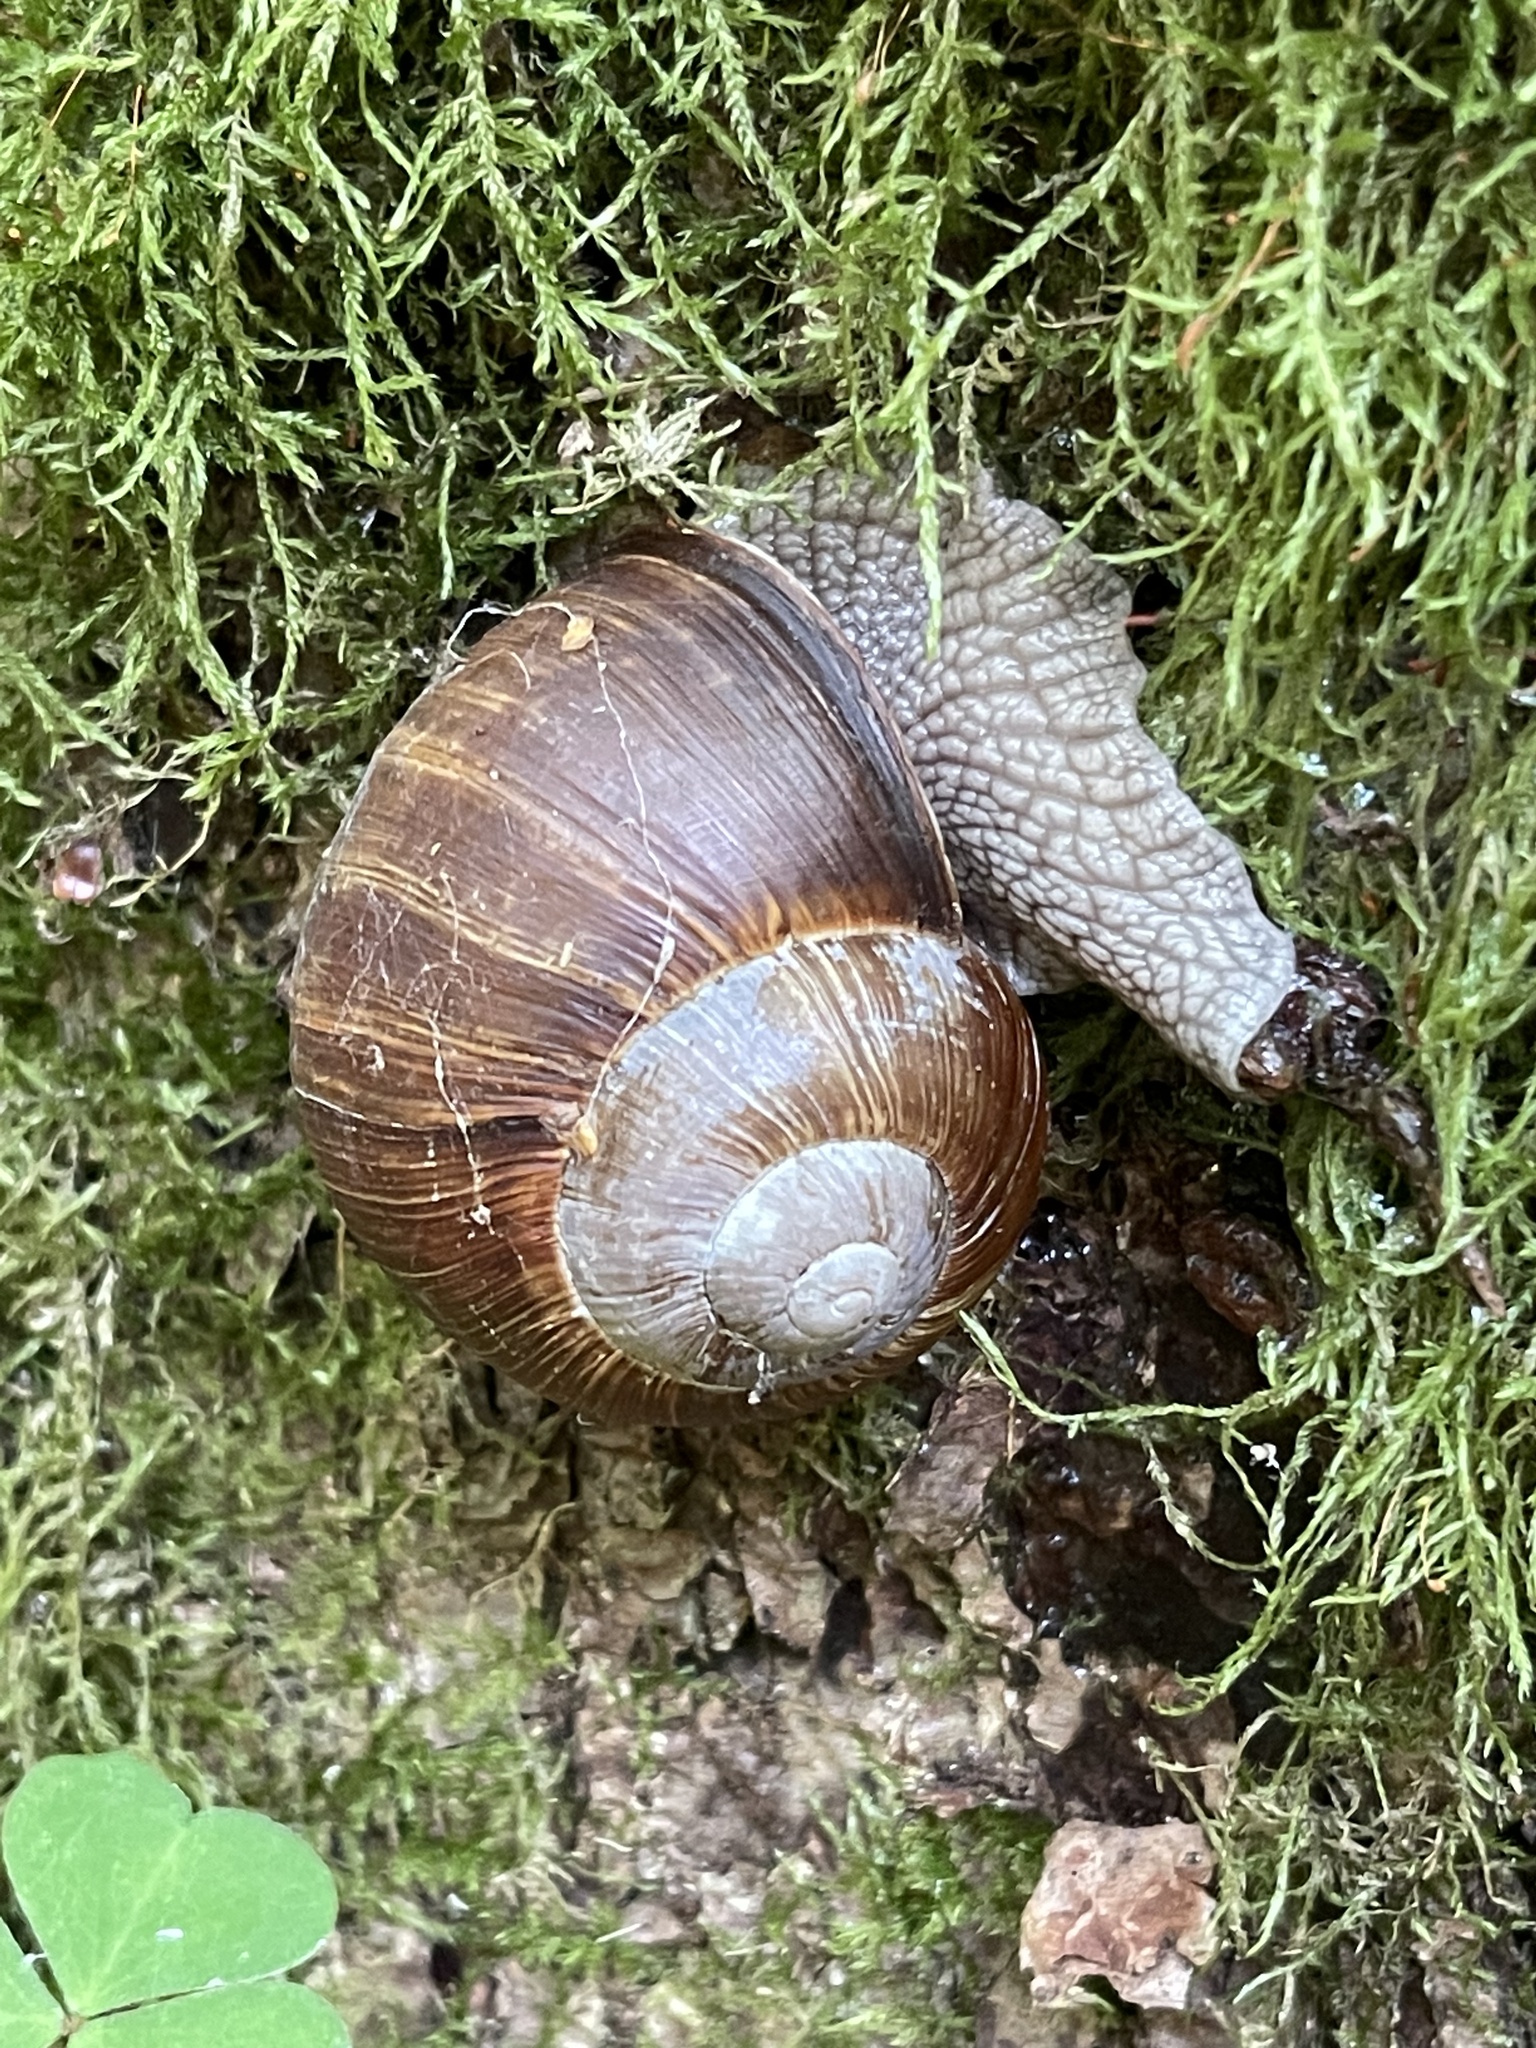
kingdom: Animalia
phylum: Mollusca
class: Gastropoda
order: Stylommatophora
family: Helicidae
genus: Helix
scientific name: Helix pomatia
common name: Roman snail
